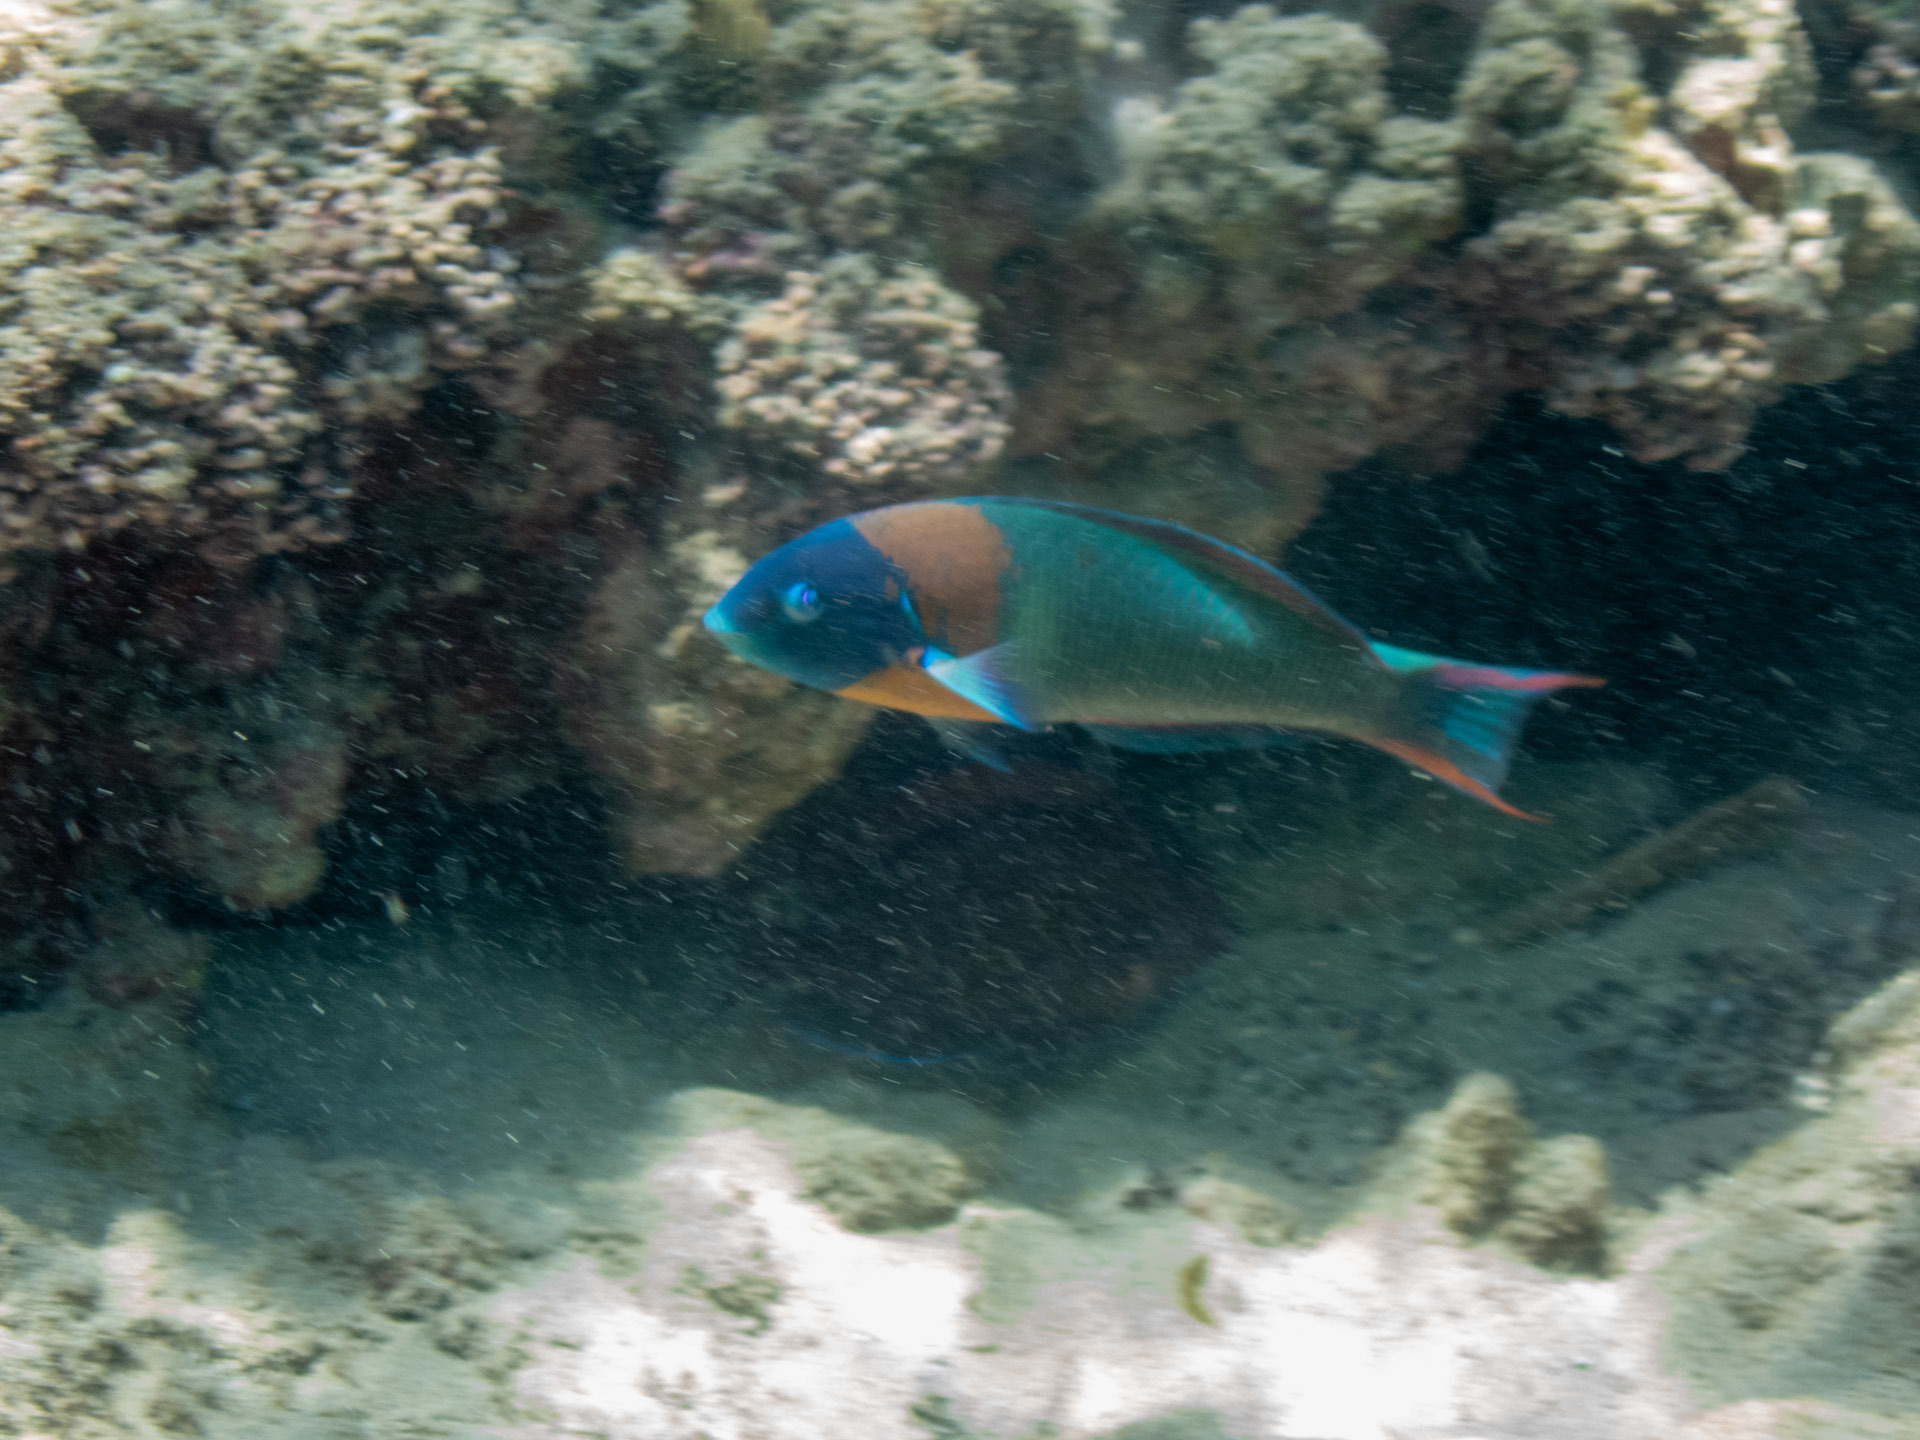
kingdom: Animalia
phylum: Chordata
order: Perciformes
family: Labridae
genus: Thalassoma
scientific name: Thalassoma duperrey
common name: Saddle wrasse
